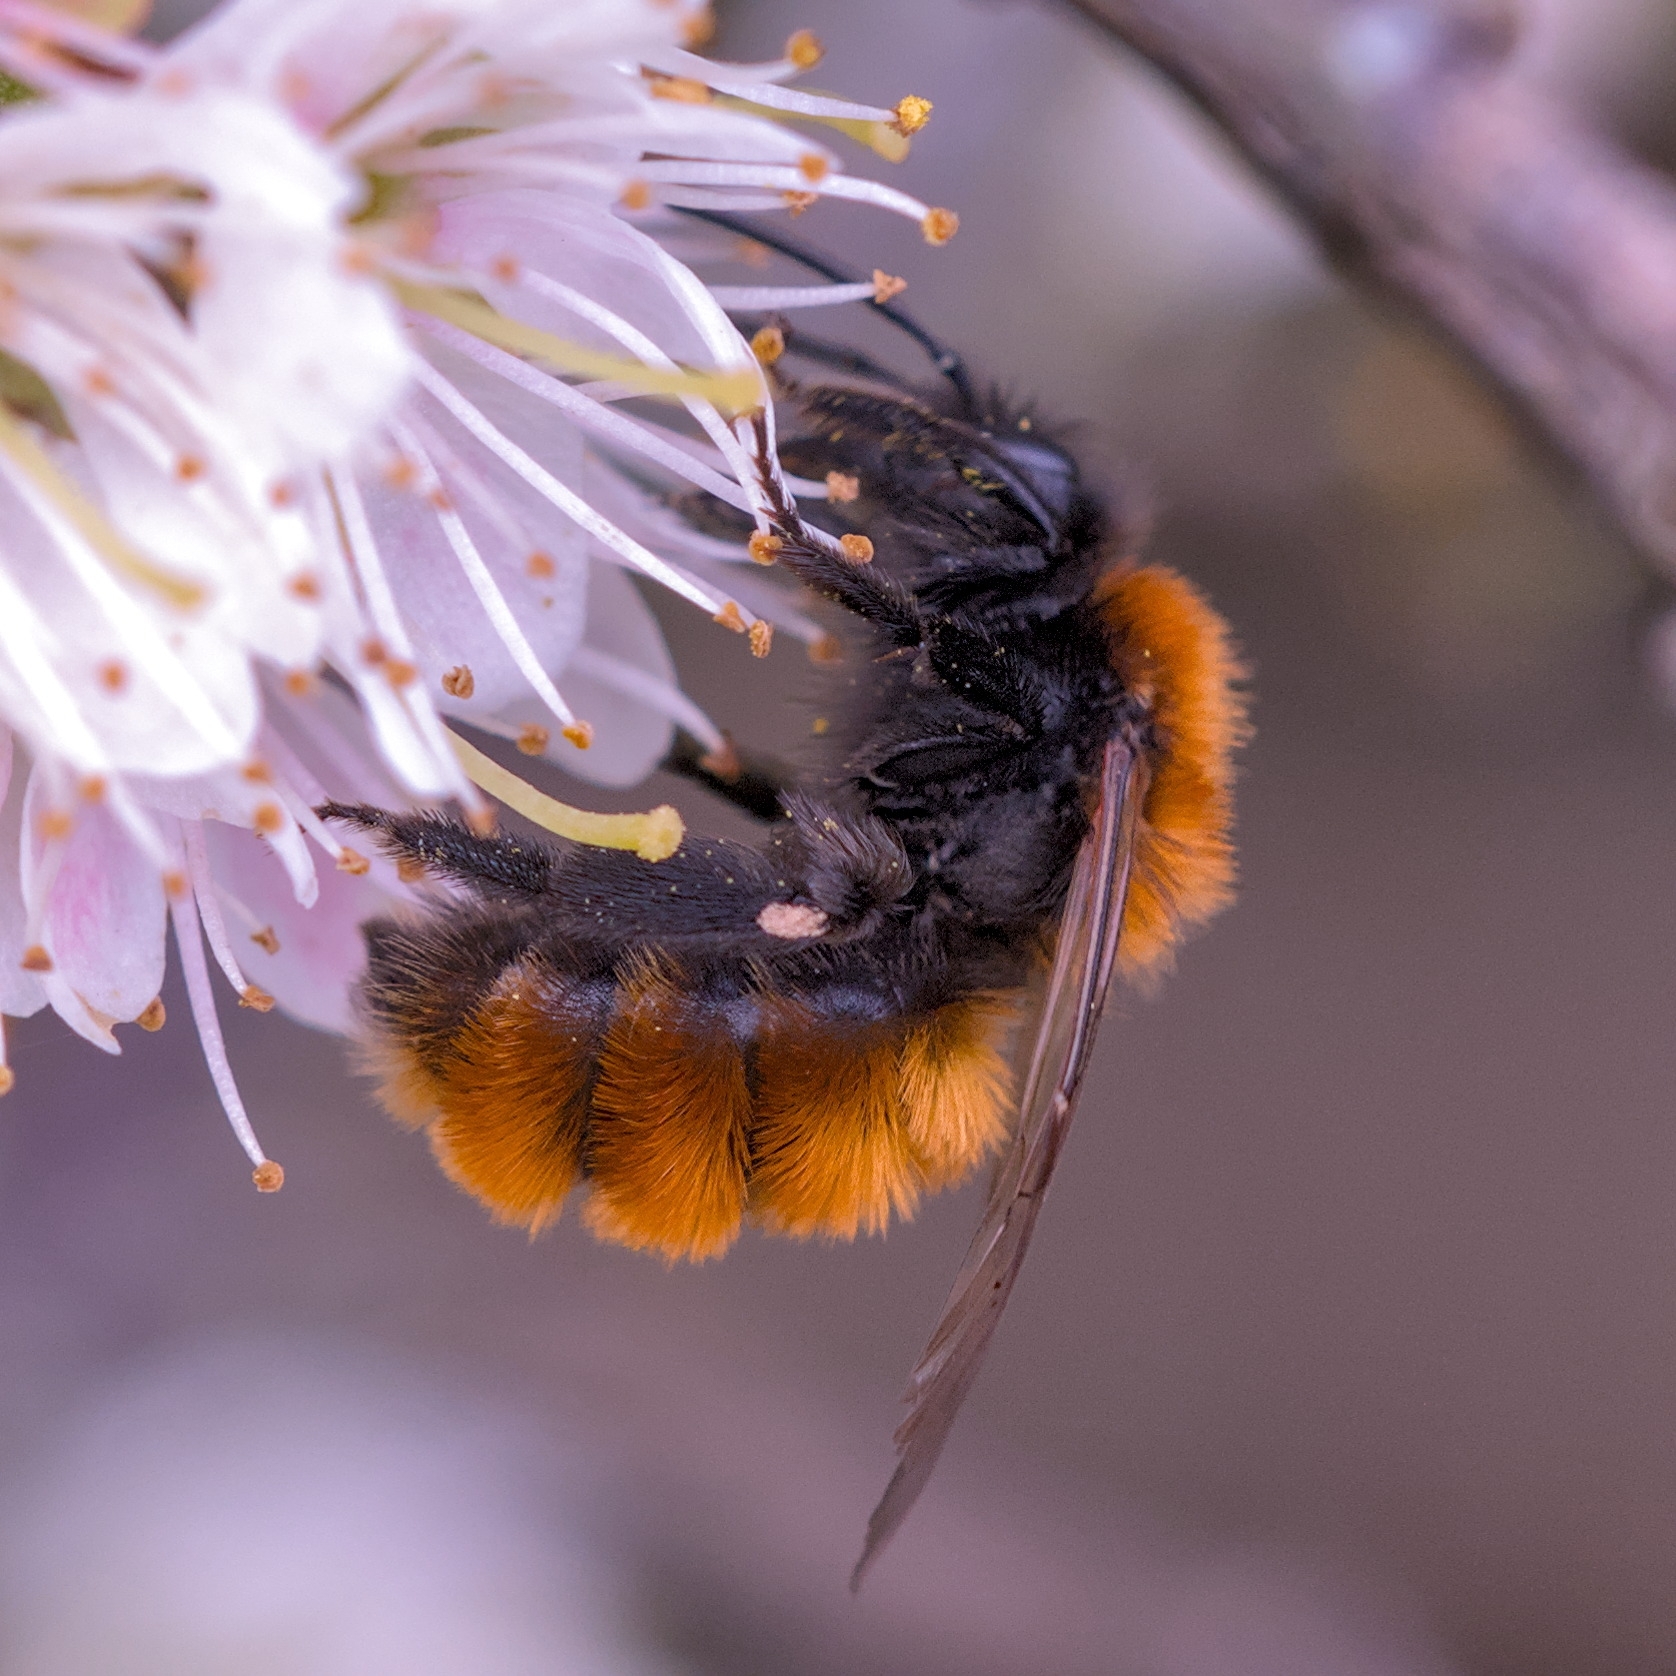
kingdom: Animalia
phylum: Arthropoda
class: Insecta
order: Hymenoptera
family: Andrenidae
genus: Andrena
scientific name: Andrena fulva
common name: Tawny mining bee
